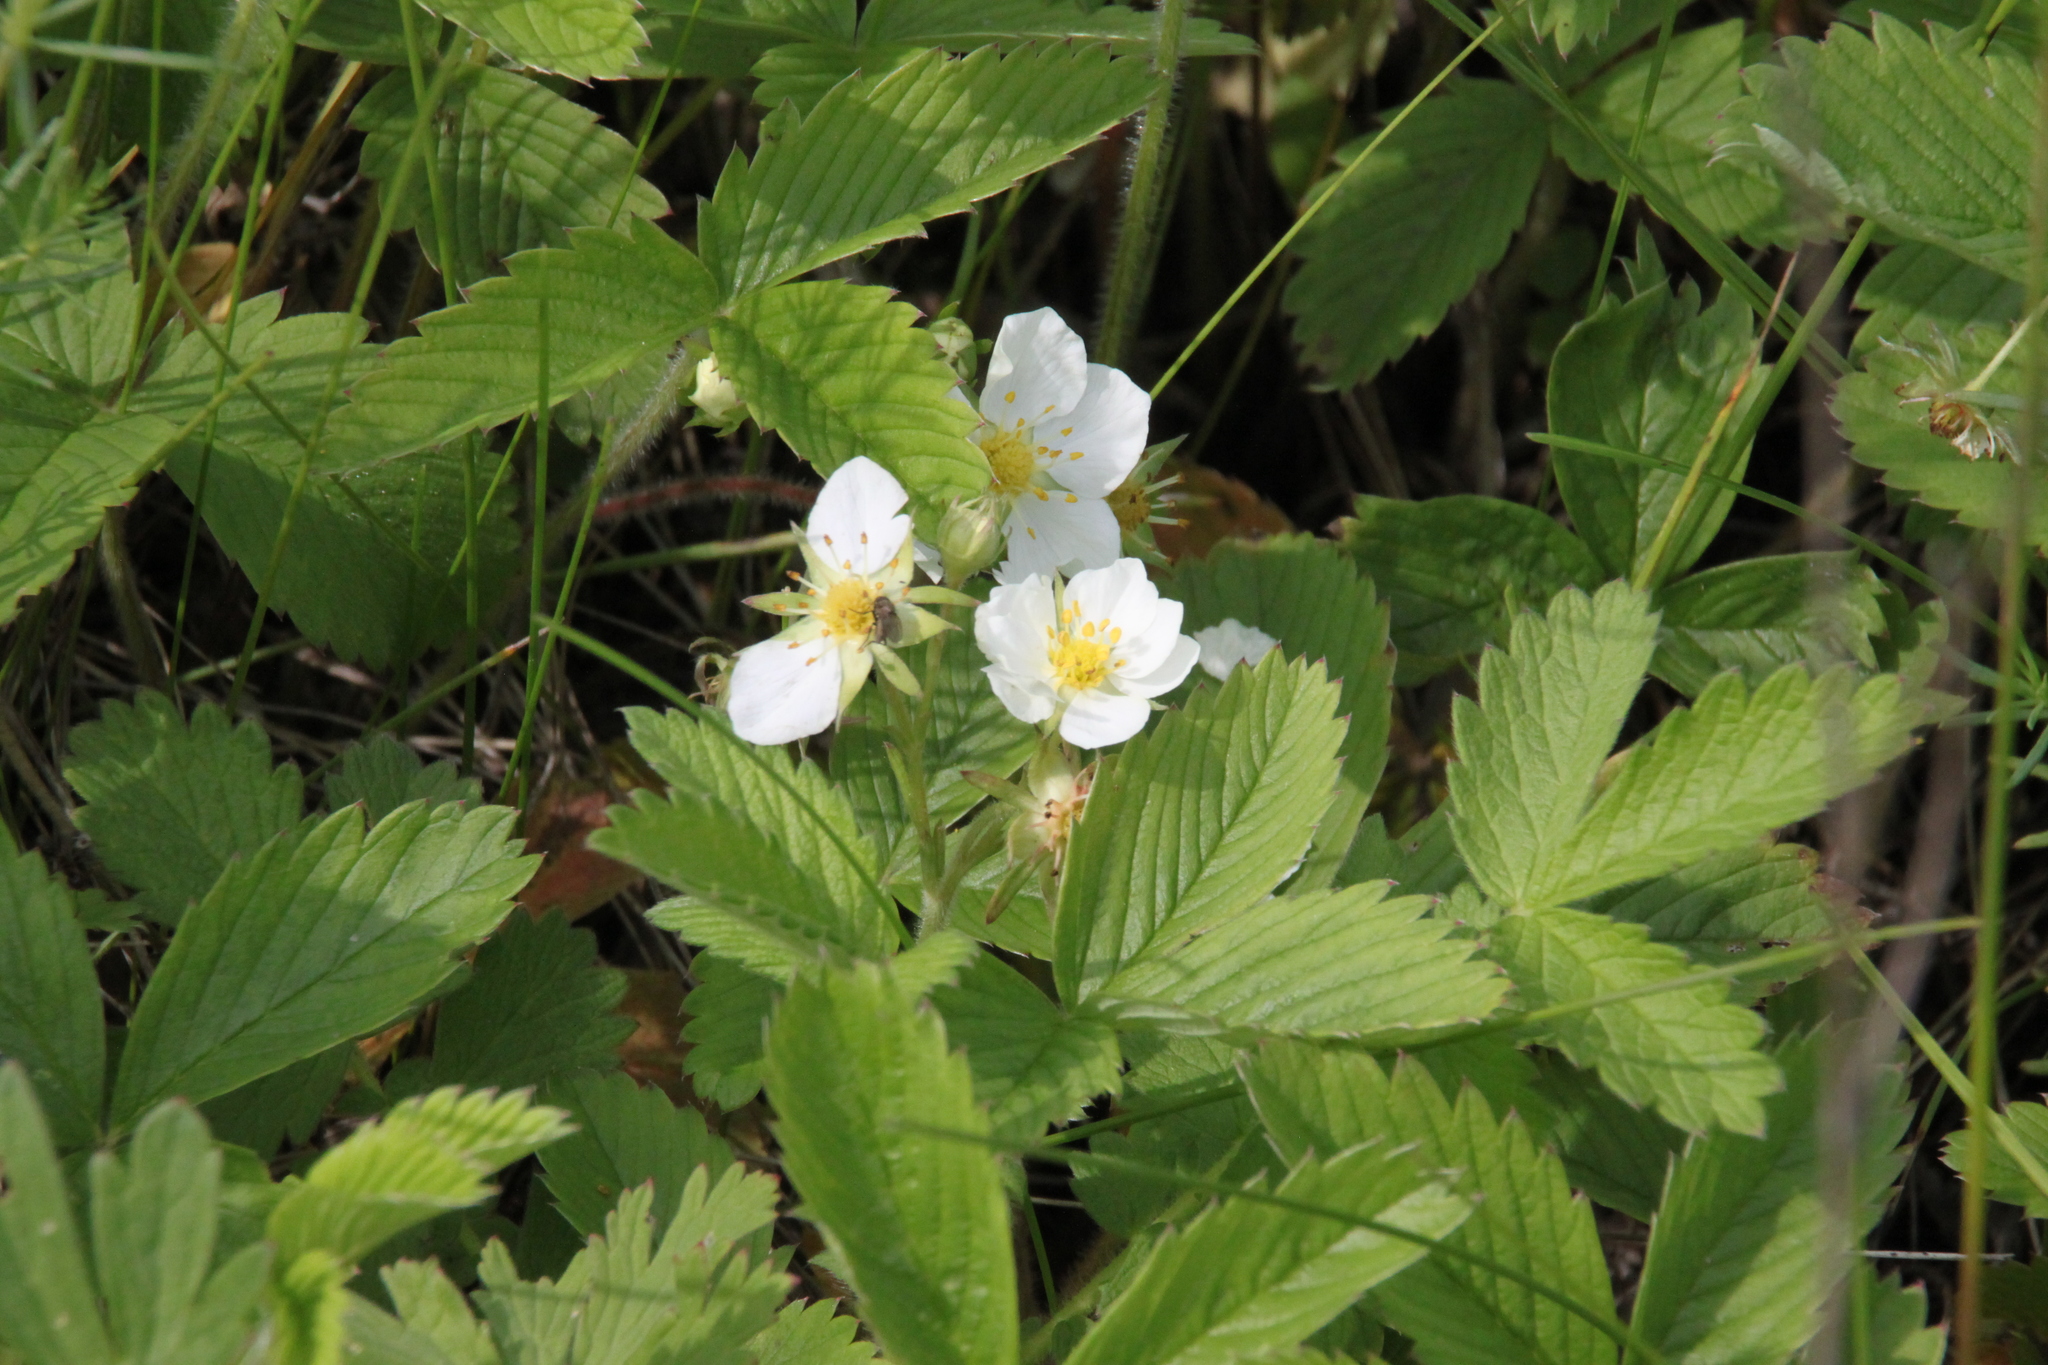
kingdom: Plantae
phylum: Tracheophyta
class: Magnoliopsida
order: Rosales
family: Rosaceae
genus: Fragaria
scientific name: Fragaria viridis
